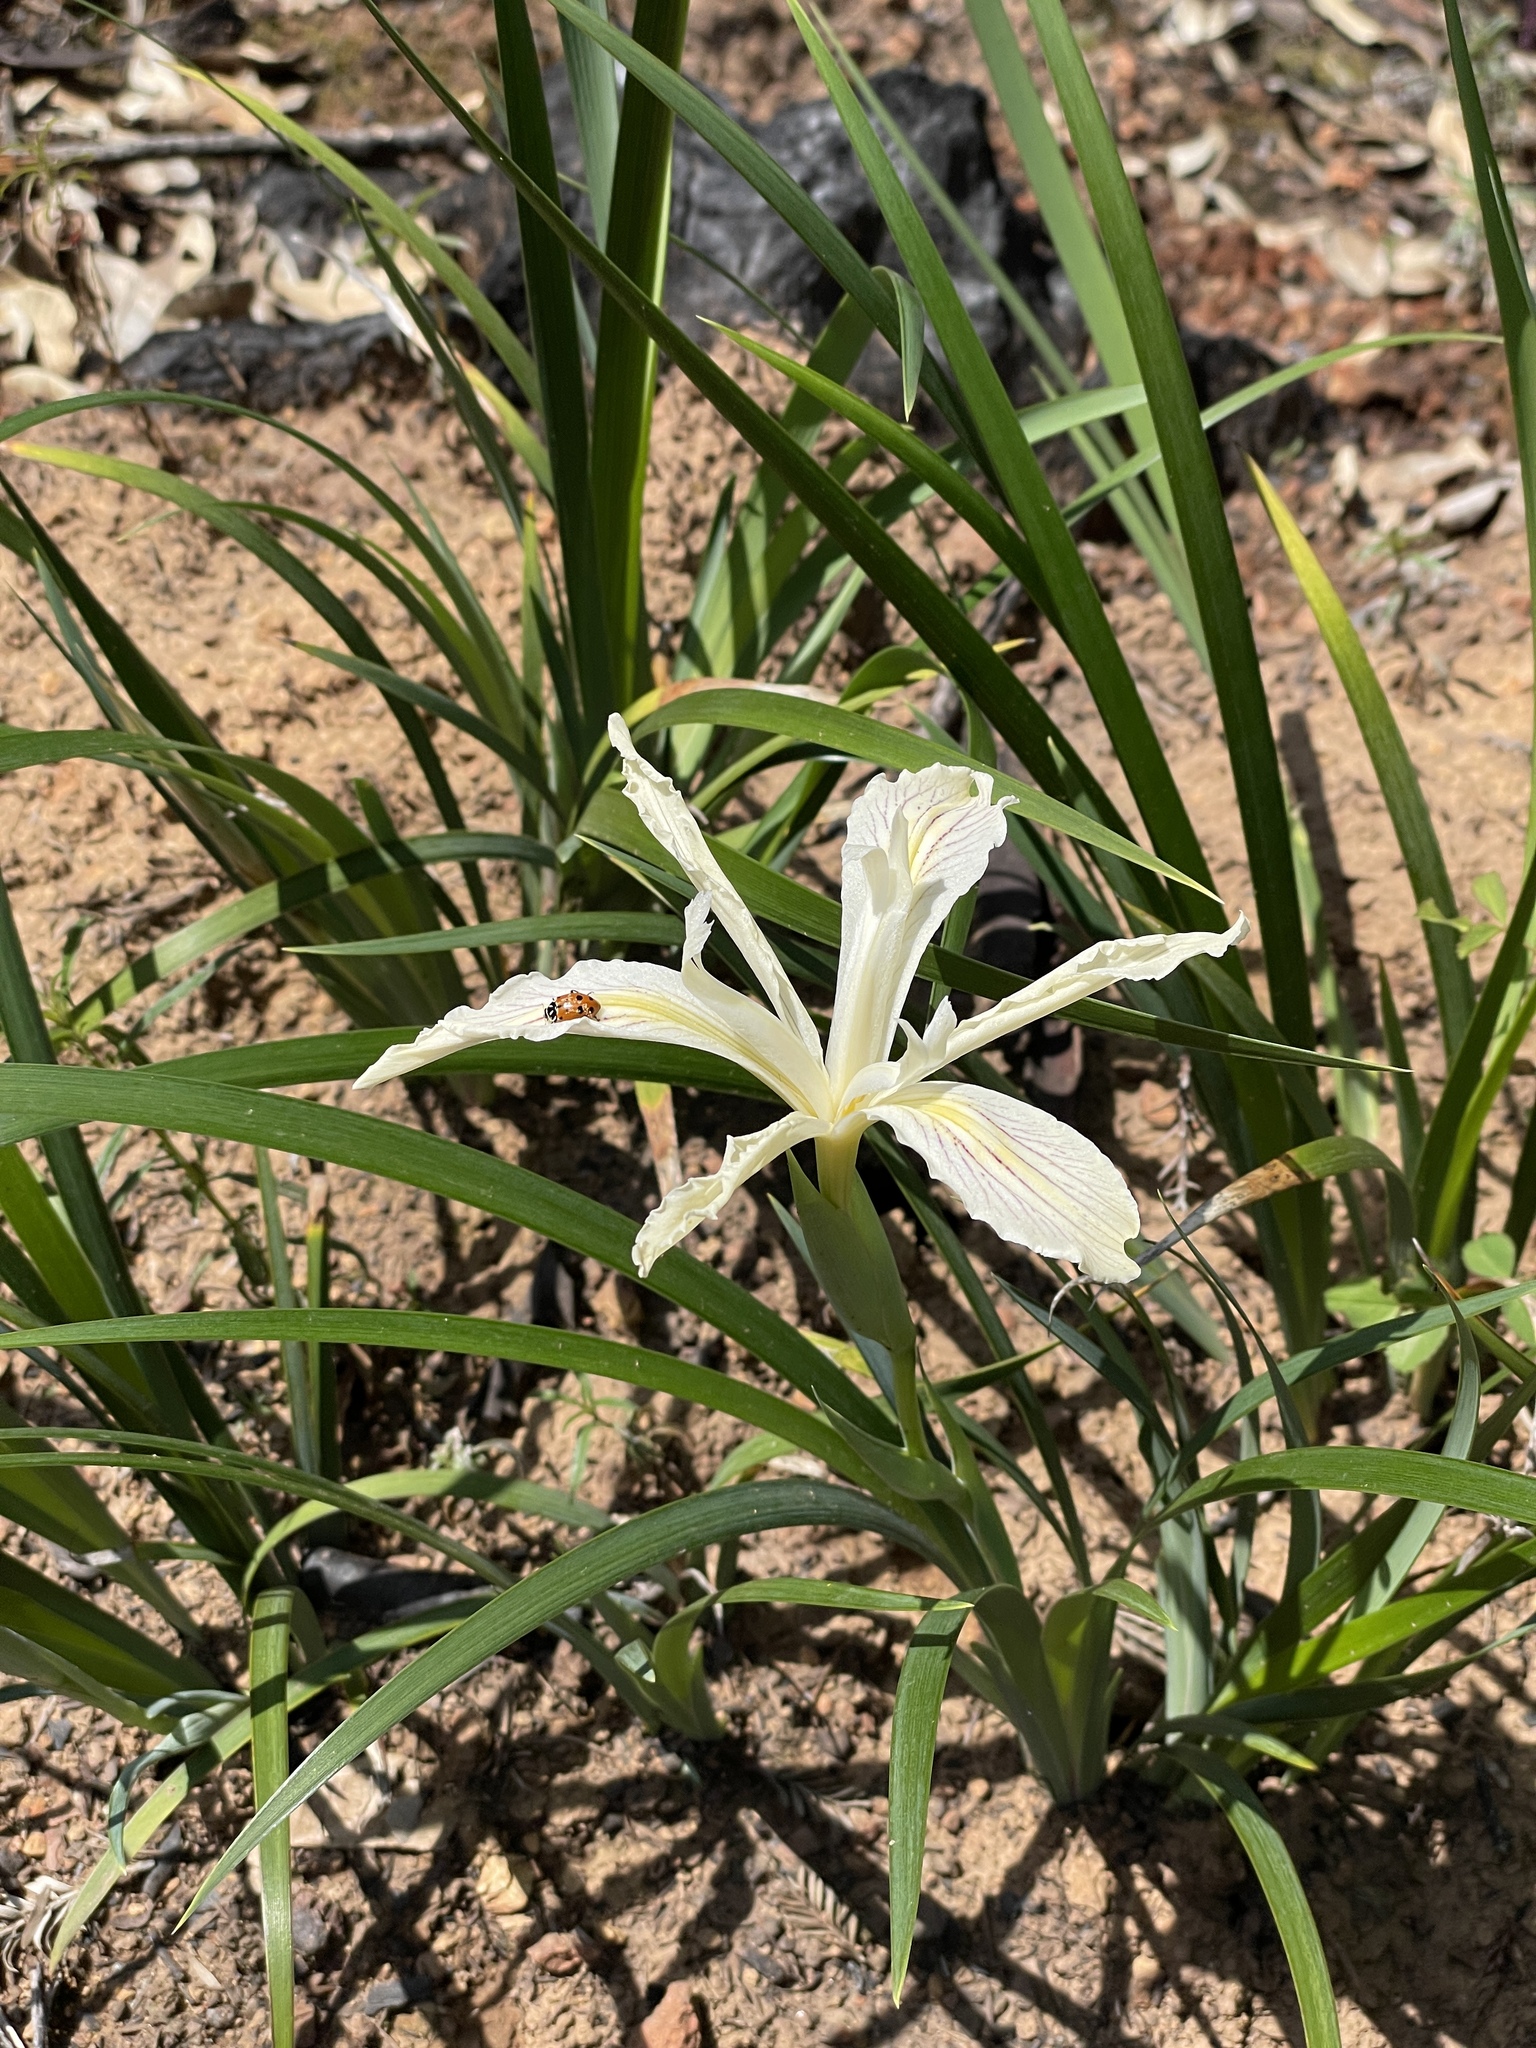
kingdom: Plantae
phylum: Tracheophyta
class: Liliopsida
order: Asparagales
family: Iridaceae
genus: Iris
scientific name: Iris purdyi
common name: Purdy's iris
